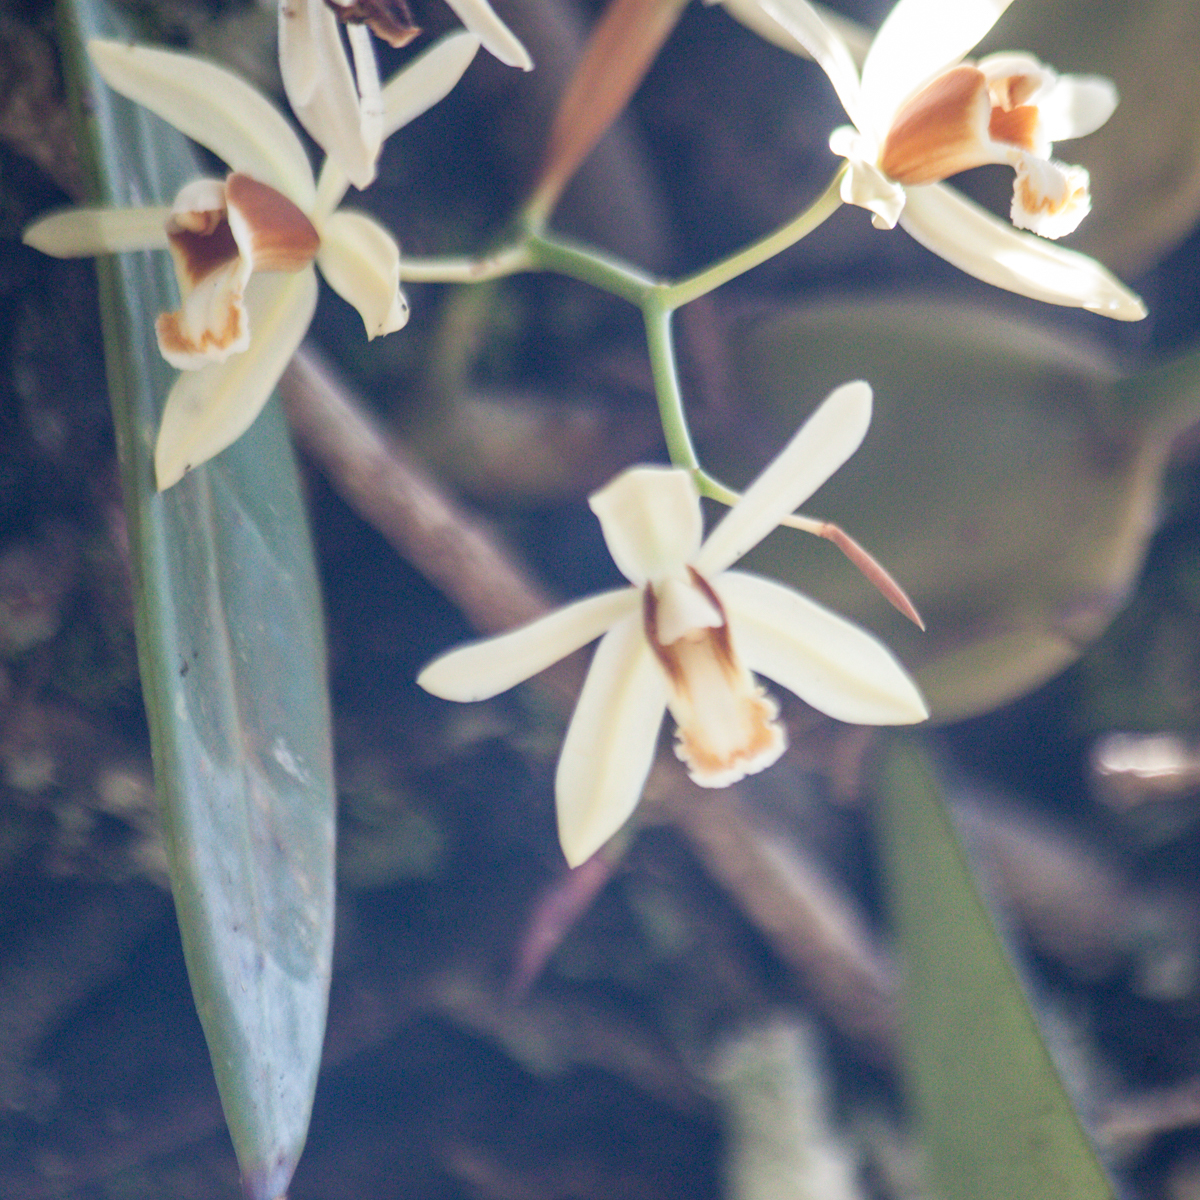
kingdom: Plantae
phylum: Tracheophyta
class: Liliopsida
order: Asparagales
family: Orchidaceae
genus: Coelogyne
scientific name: Coelogyne trinervis
